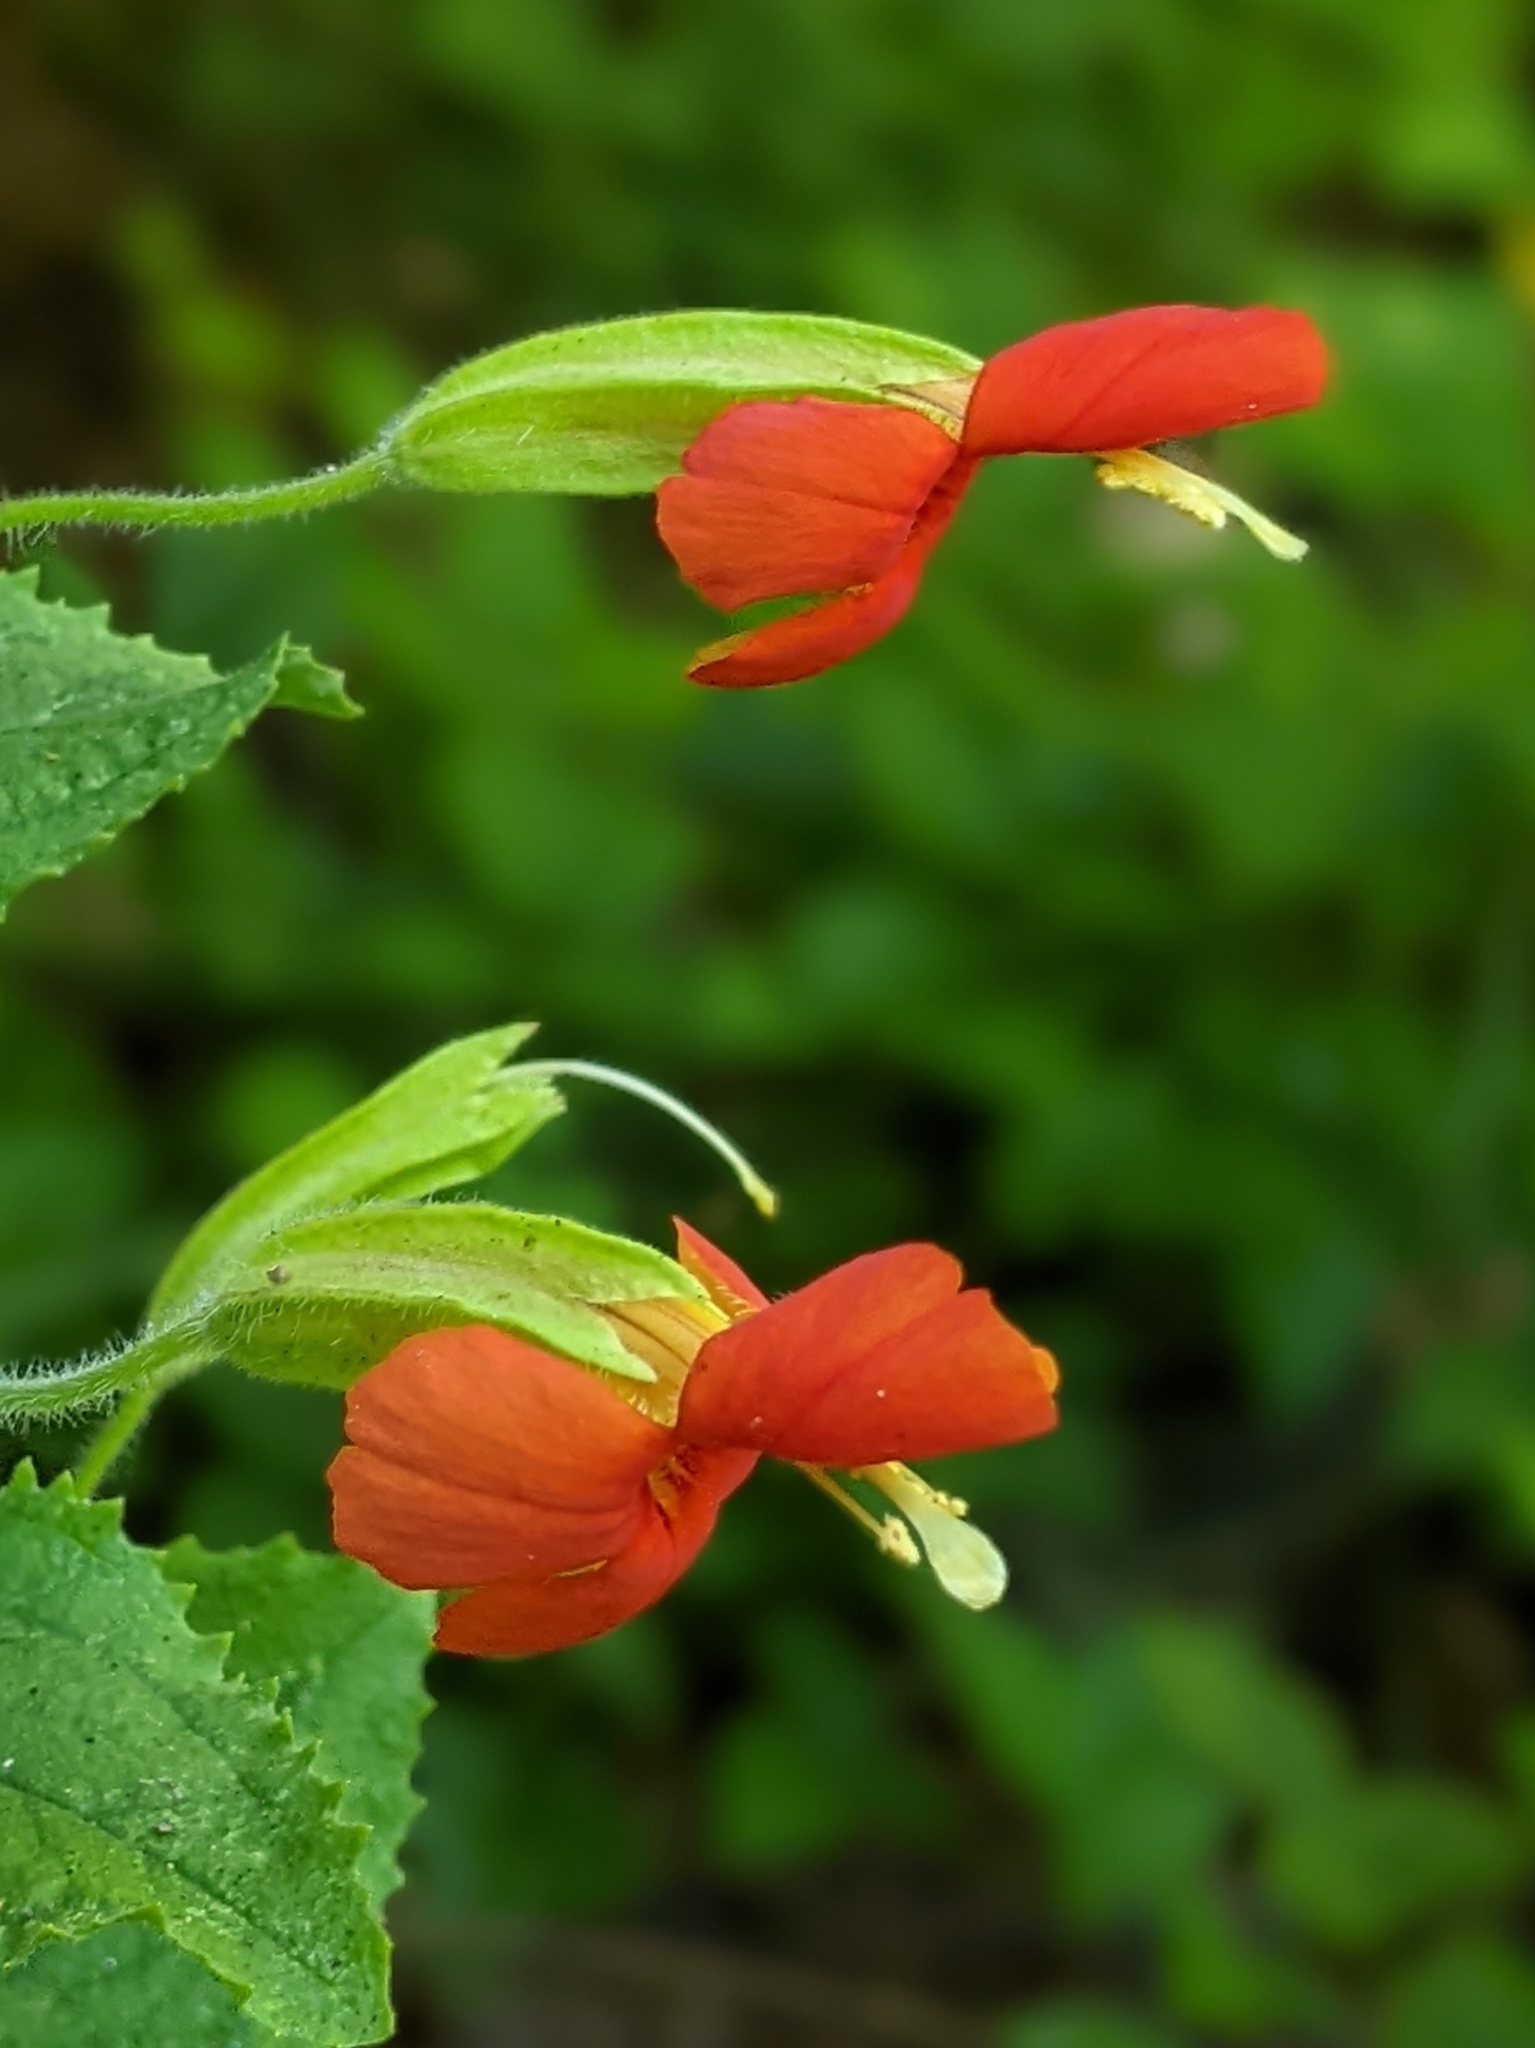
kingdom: Plantae
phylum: Tracheophyta
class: Magnoliopsida
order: Lamiales
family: Phrymaceae
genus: Erythranthe
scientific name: Erythranthe cardinalis
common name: Scarlet monkey-flower
